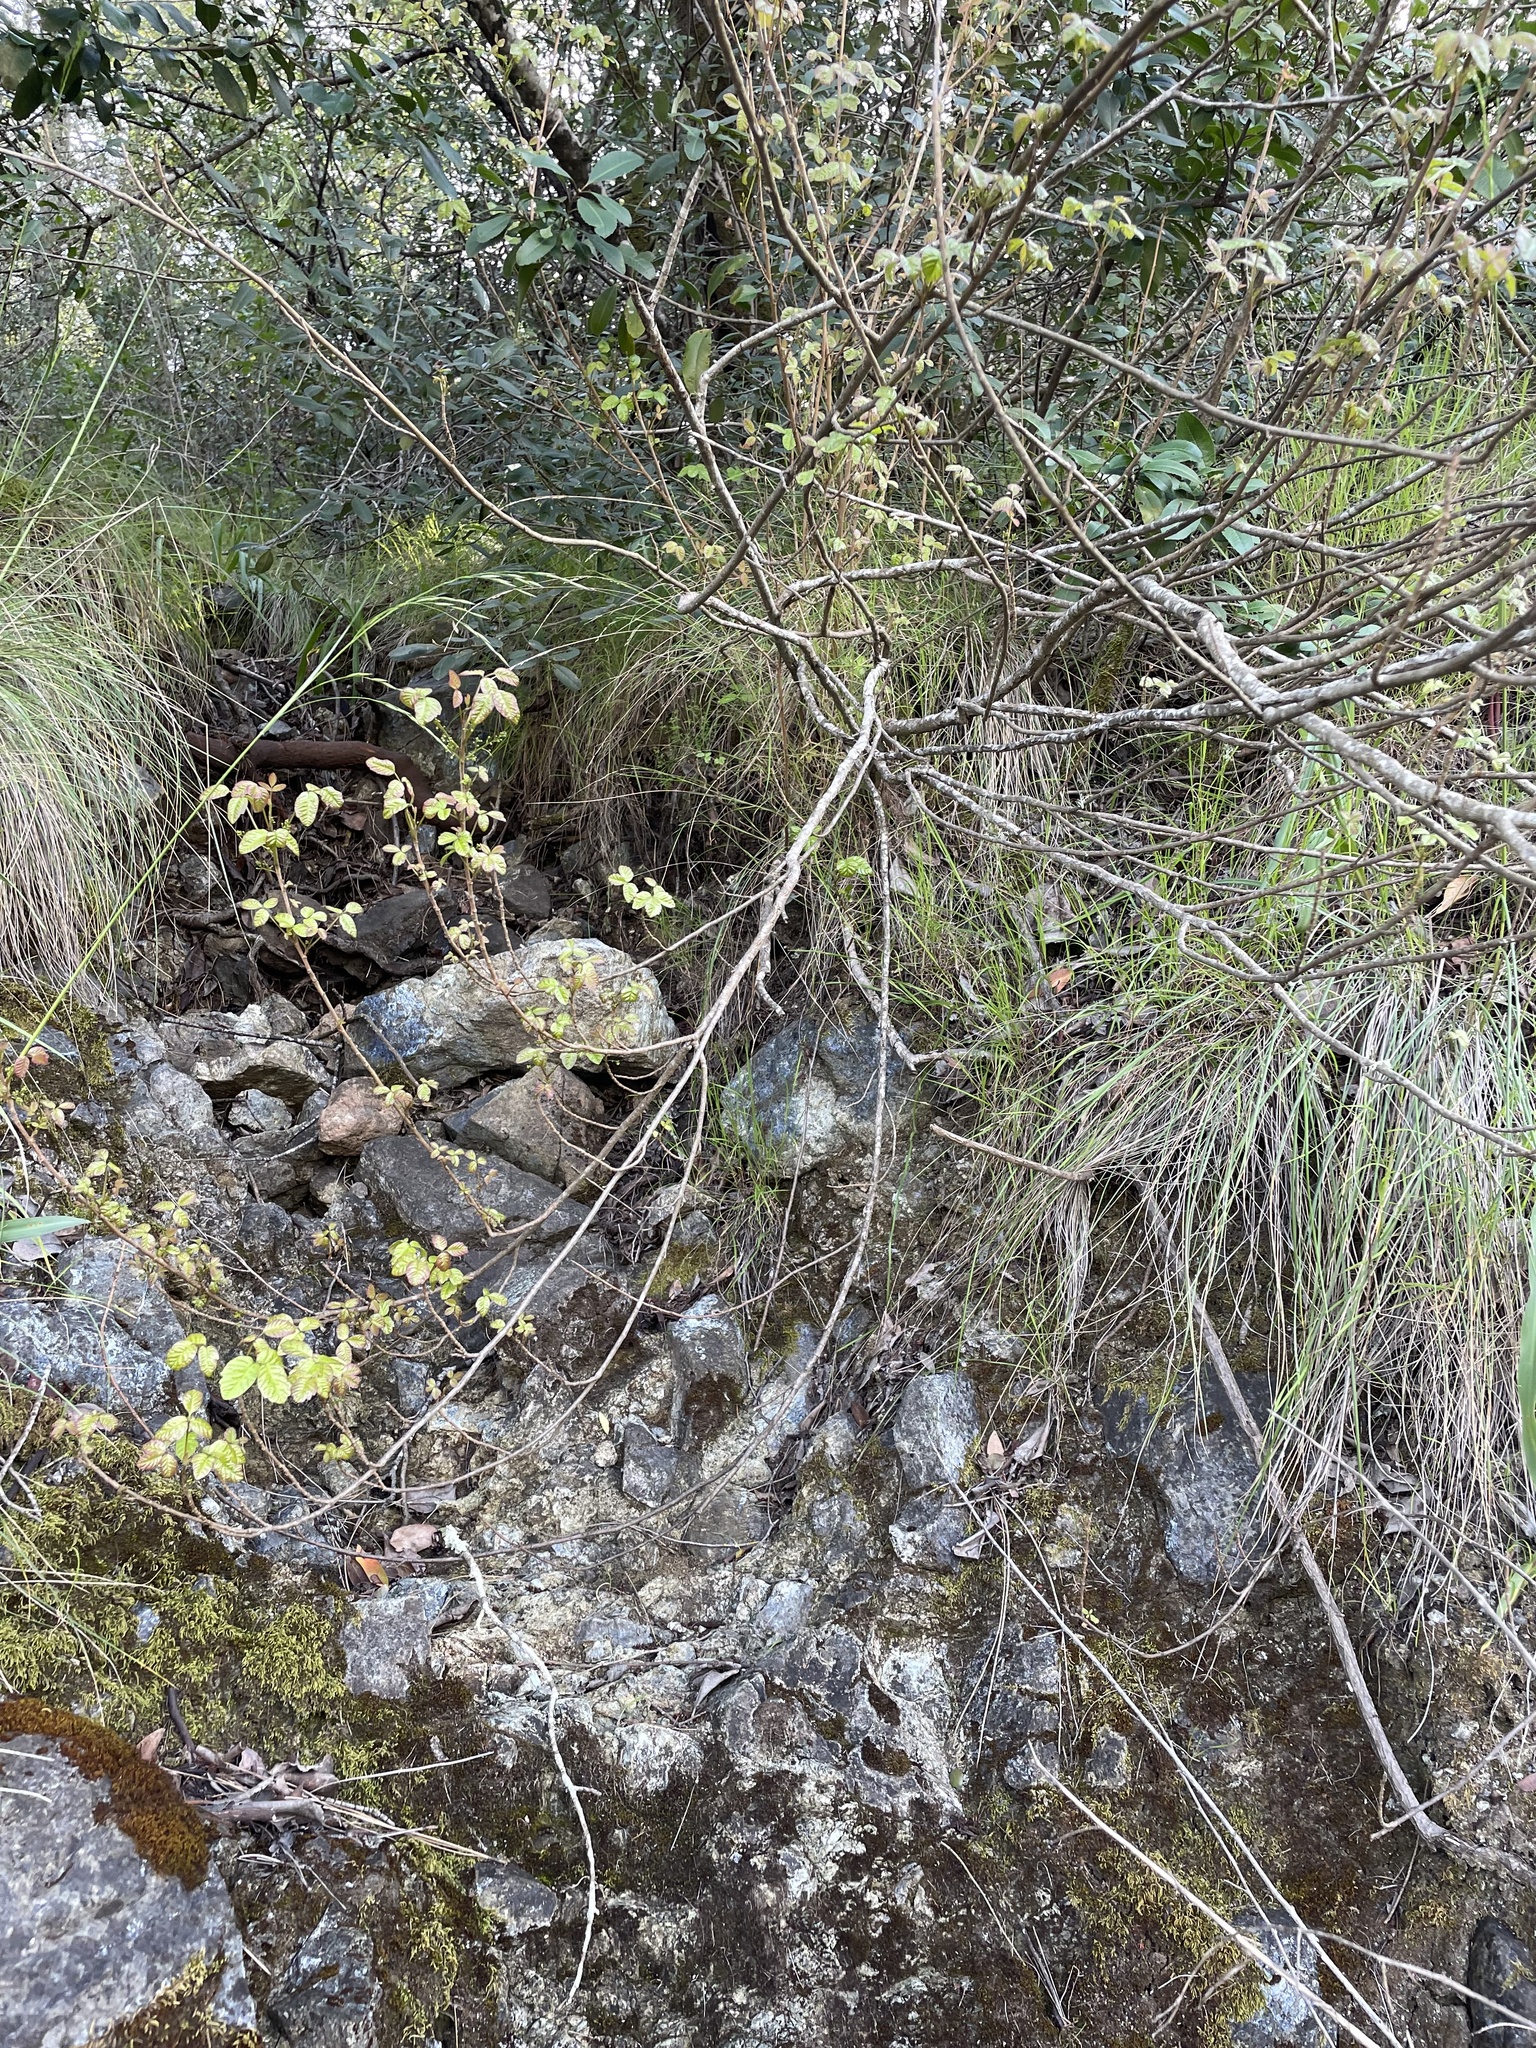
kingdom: Plantae
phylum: Tracheophyta
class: Magnoliopsida
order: Sapindales
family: Anacardiaceae
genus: Toxicodendron
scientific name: Toxicodendron diversilobum
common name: Pacific poison-oak
